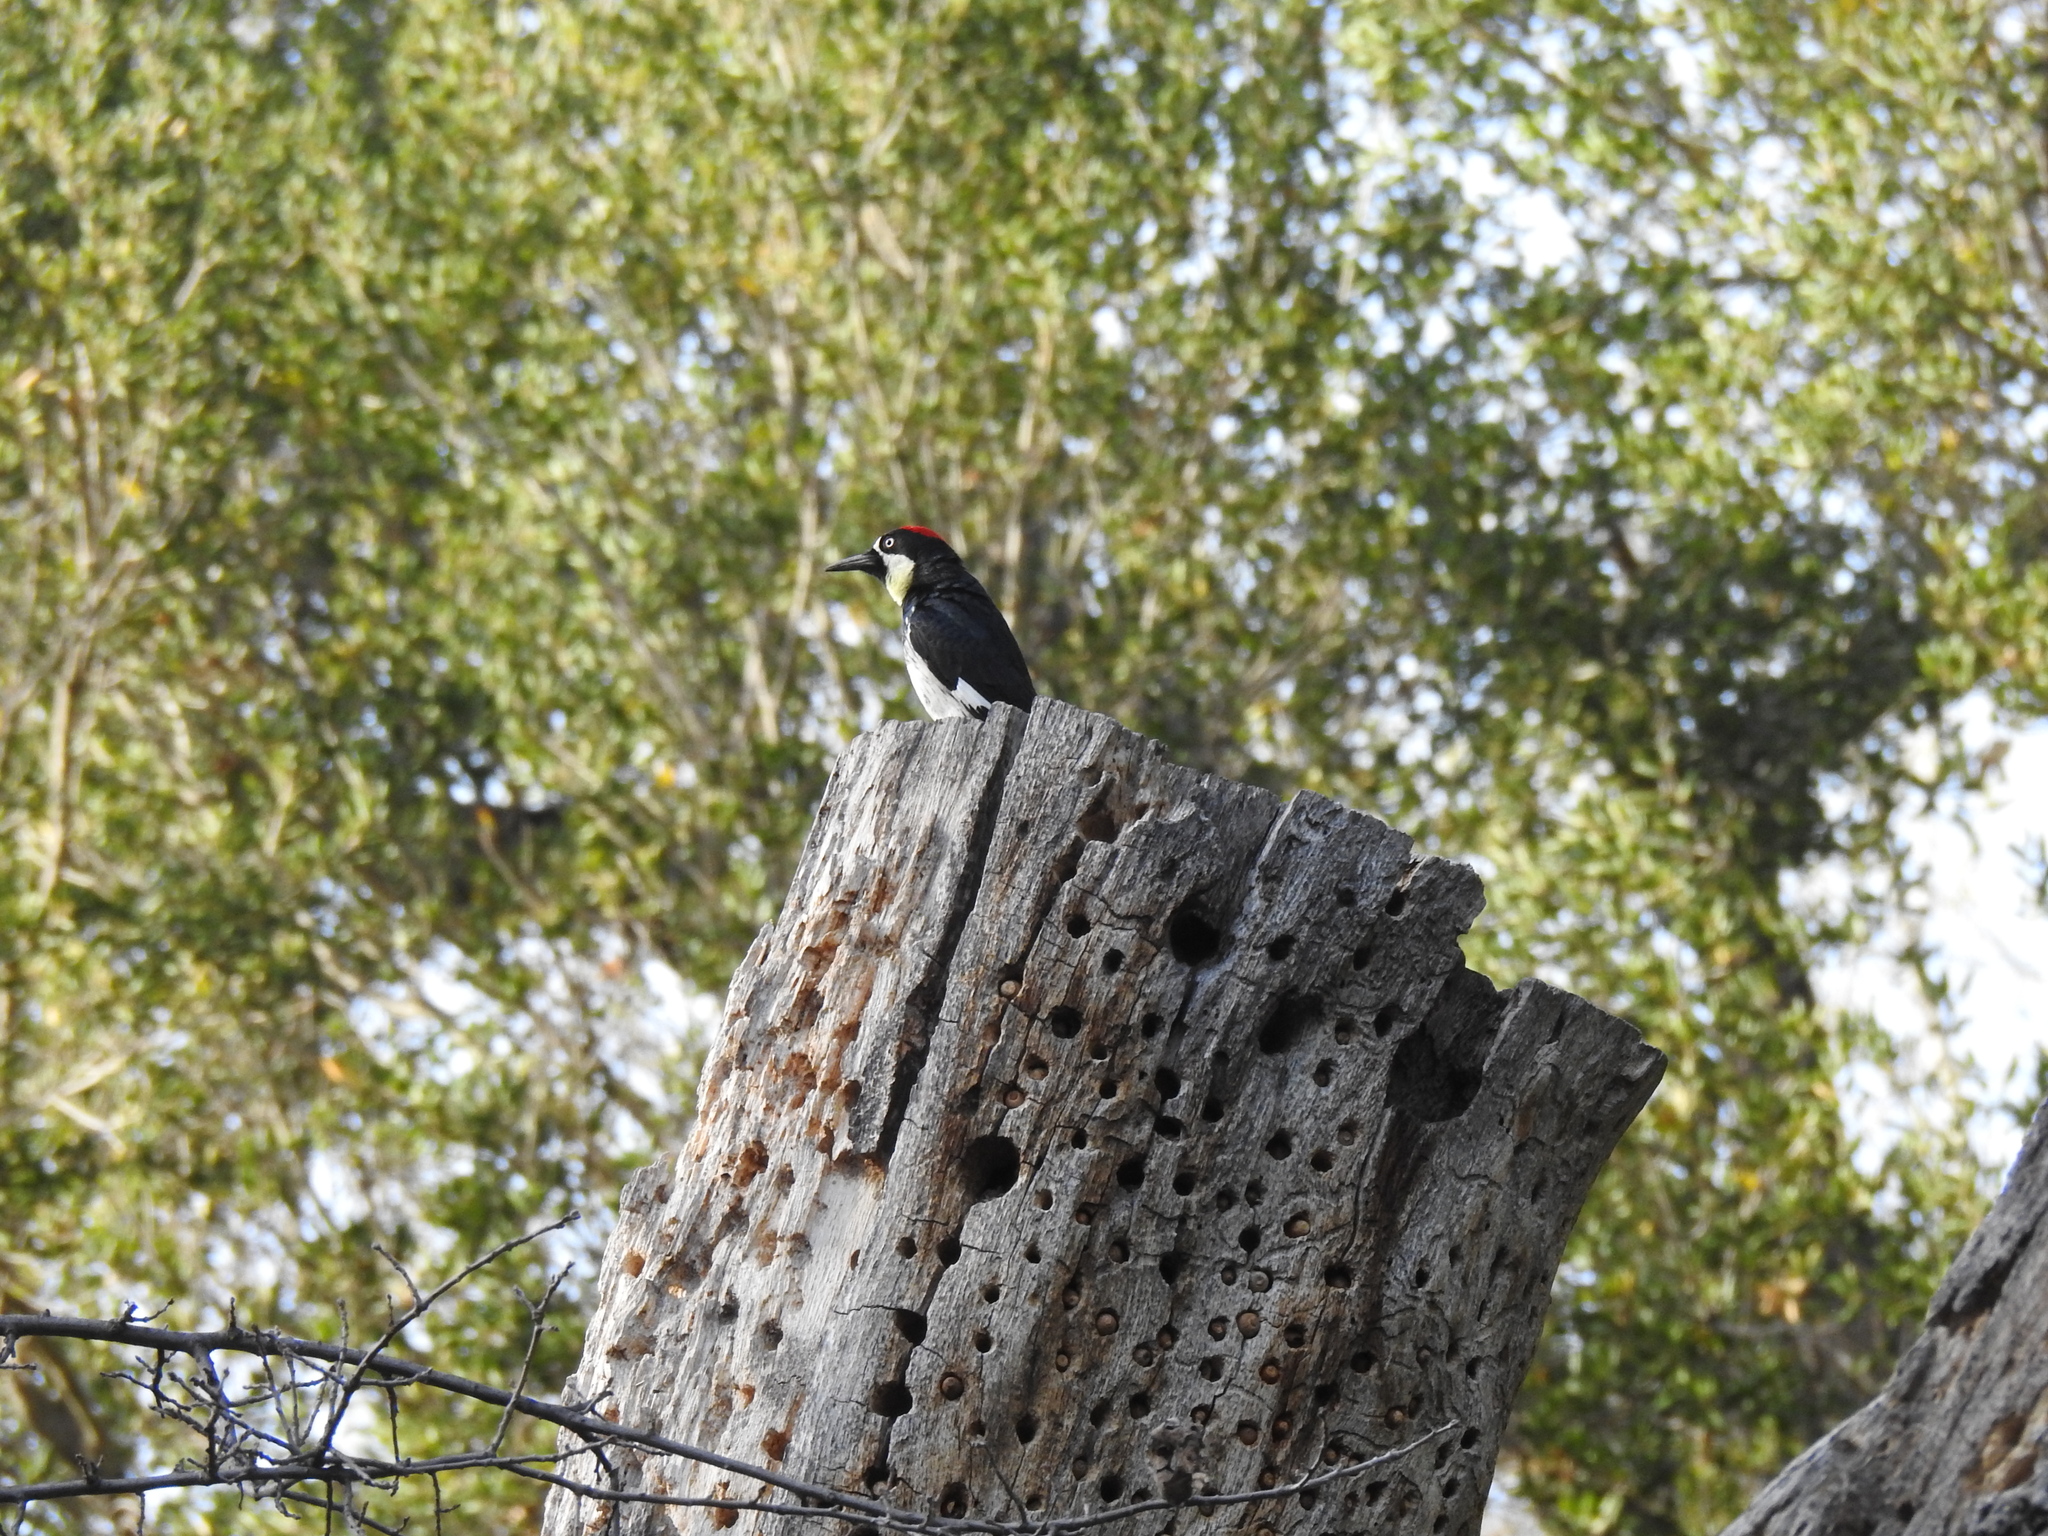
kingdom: Animalia
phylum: Chordata
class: Aves
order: Piciformes
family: Picidae
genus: Melanerpes
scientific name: Melanerpes formicivorus
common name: Acorn woodpecker
